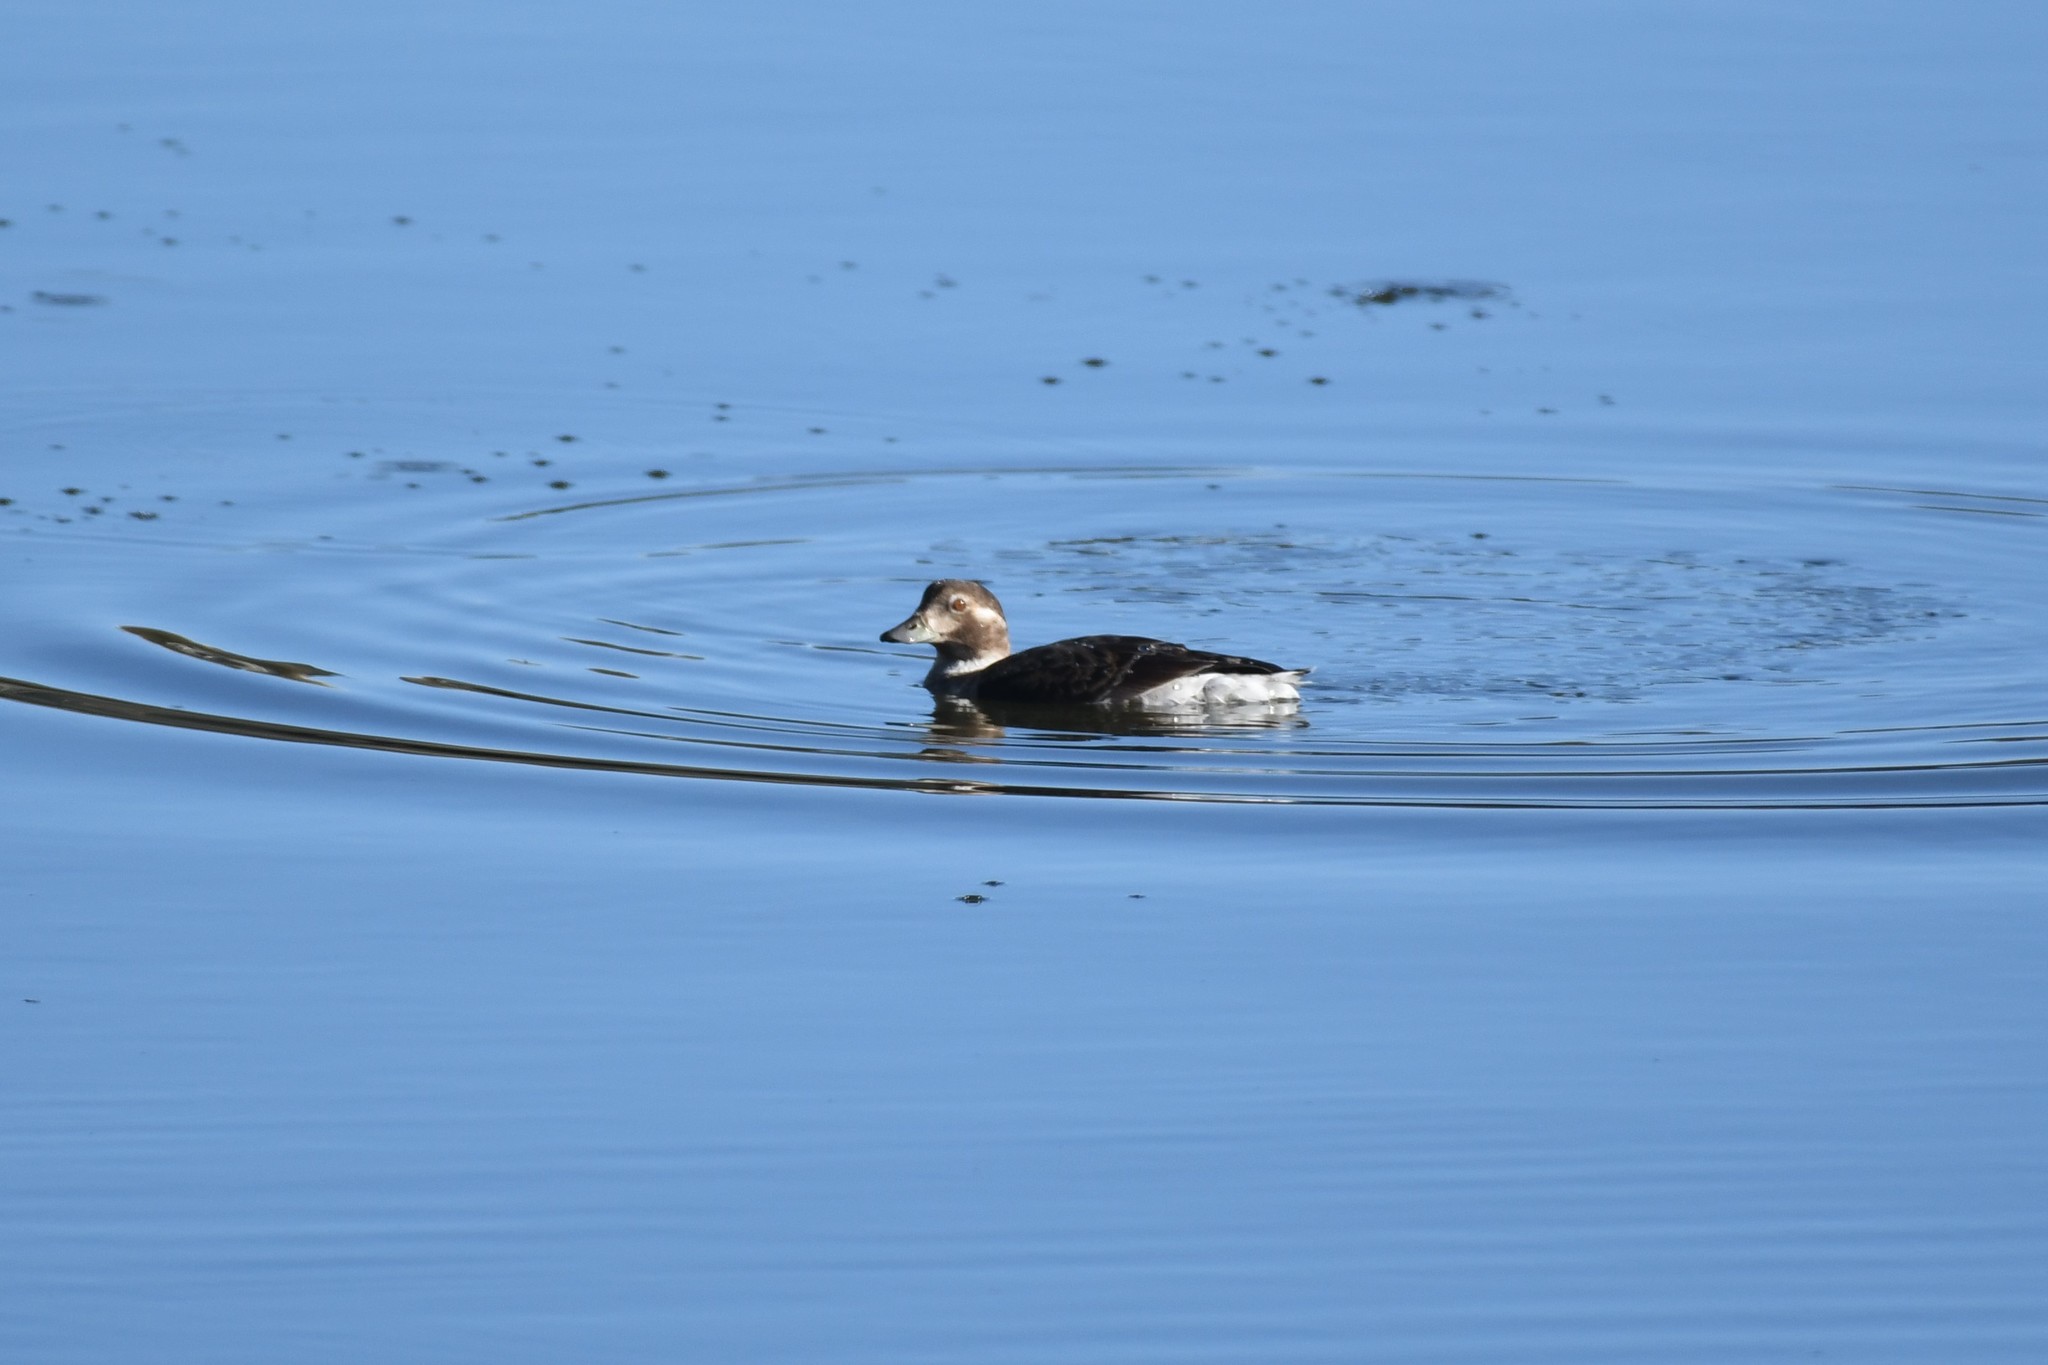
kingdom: Animalia
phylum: Chordata
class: Aves
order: Anseriformes
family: Anatidae
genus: Clangula
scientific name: Clangula hyemalis
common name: Long-tailed duck
